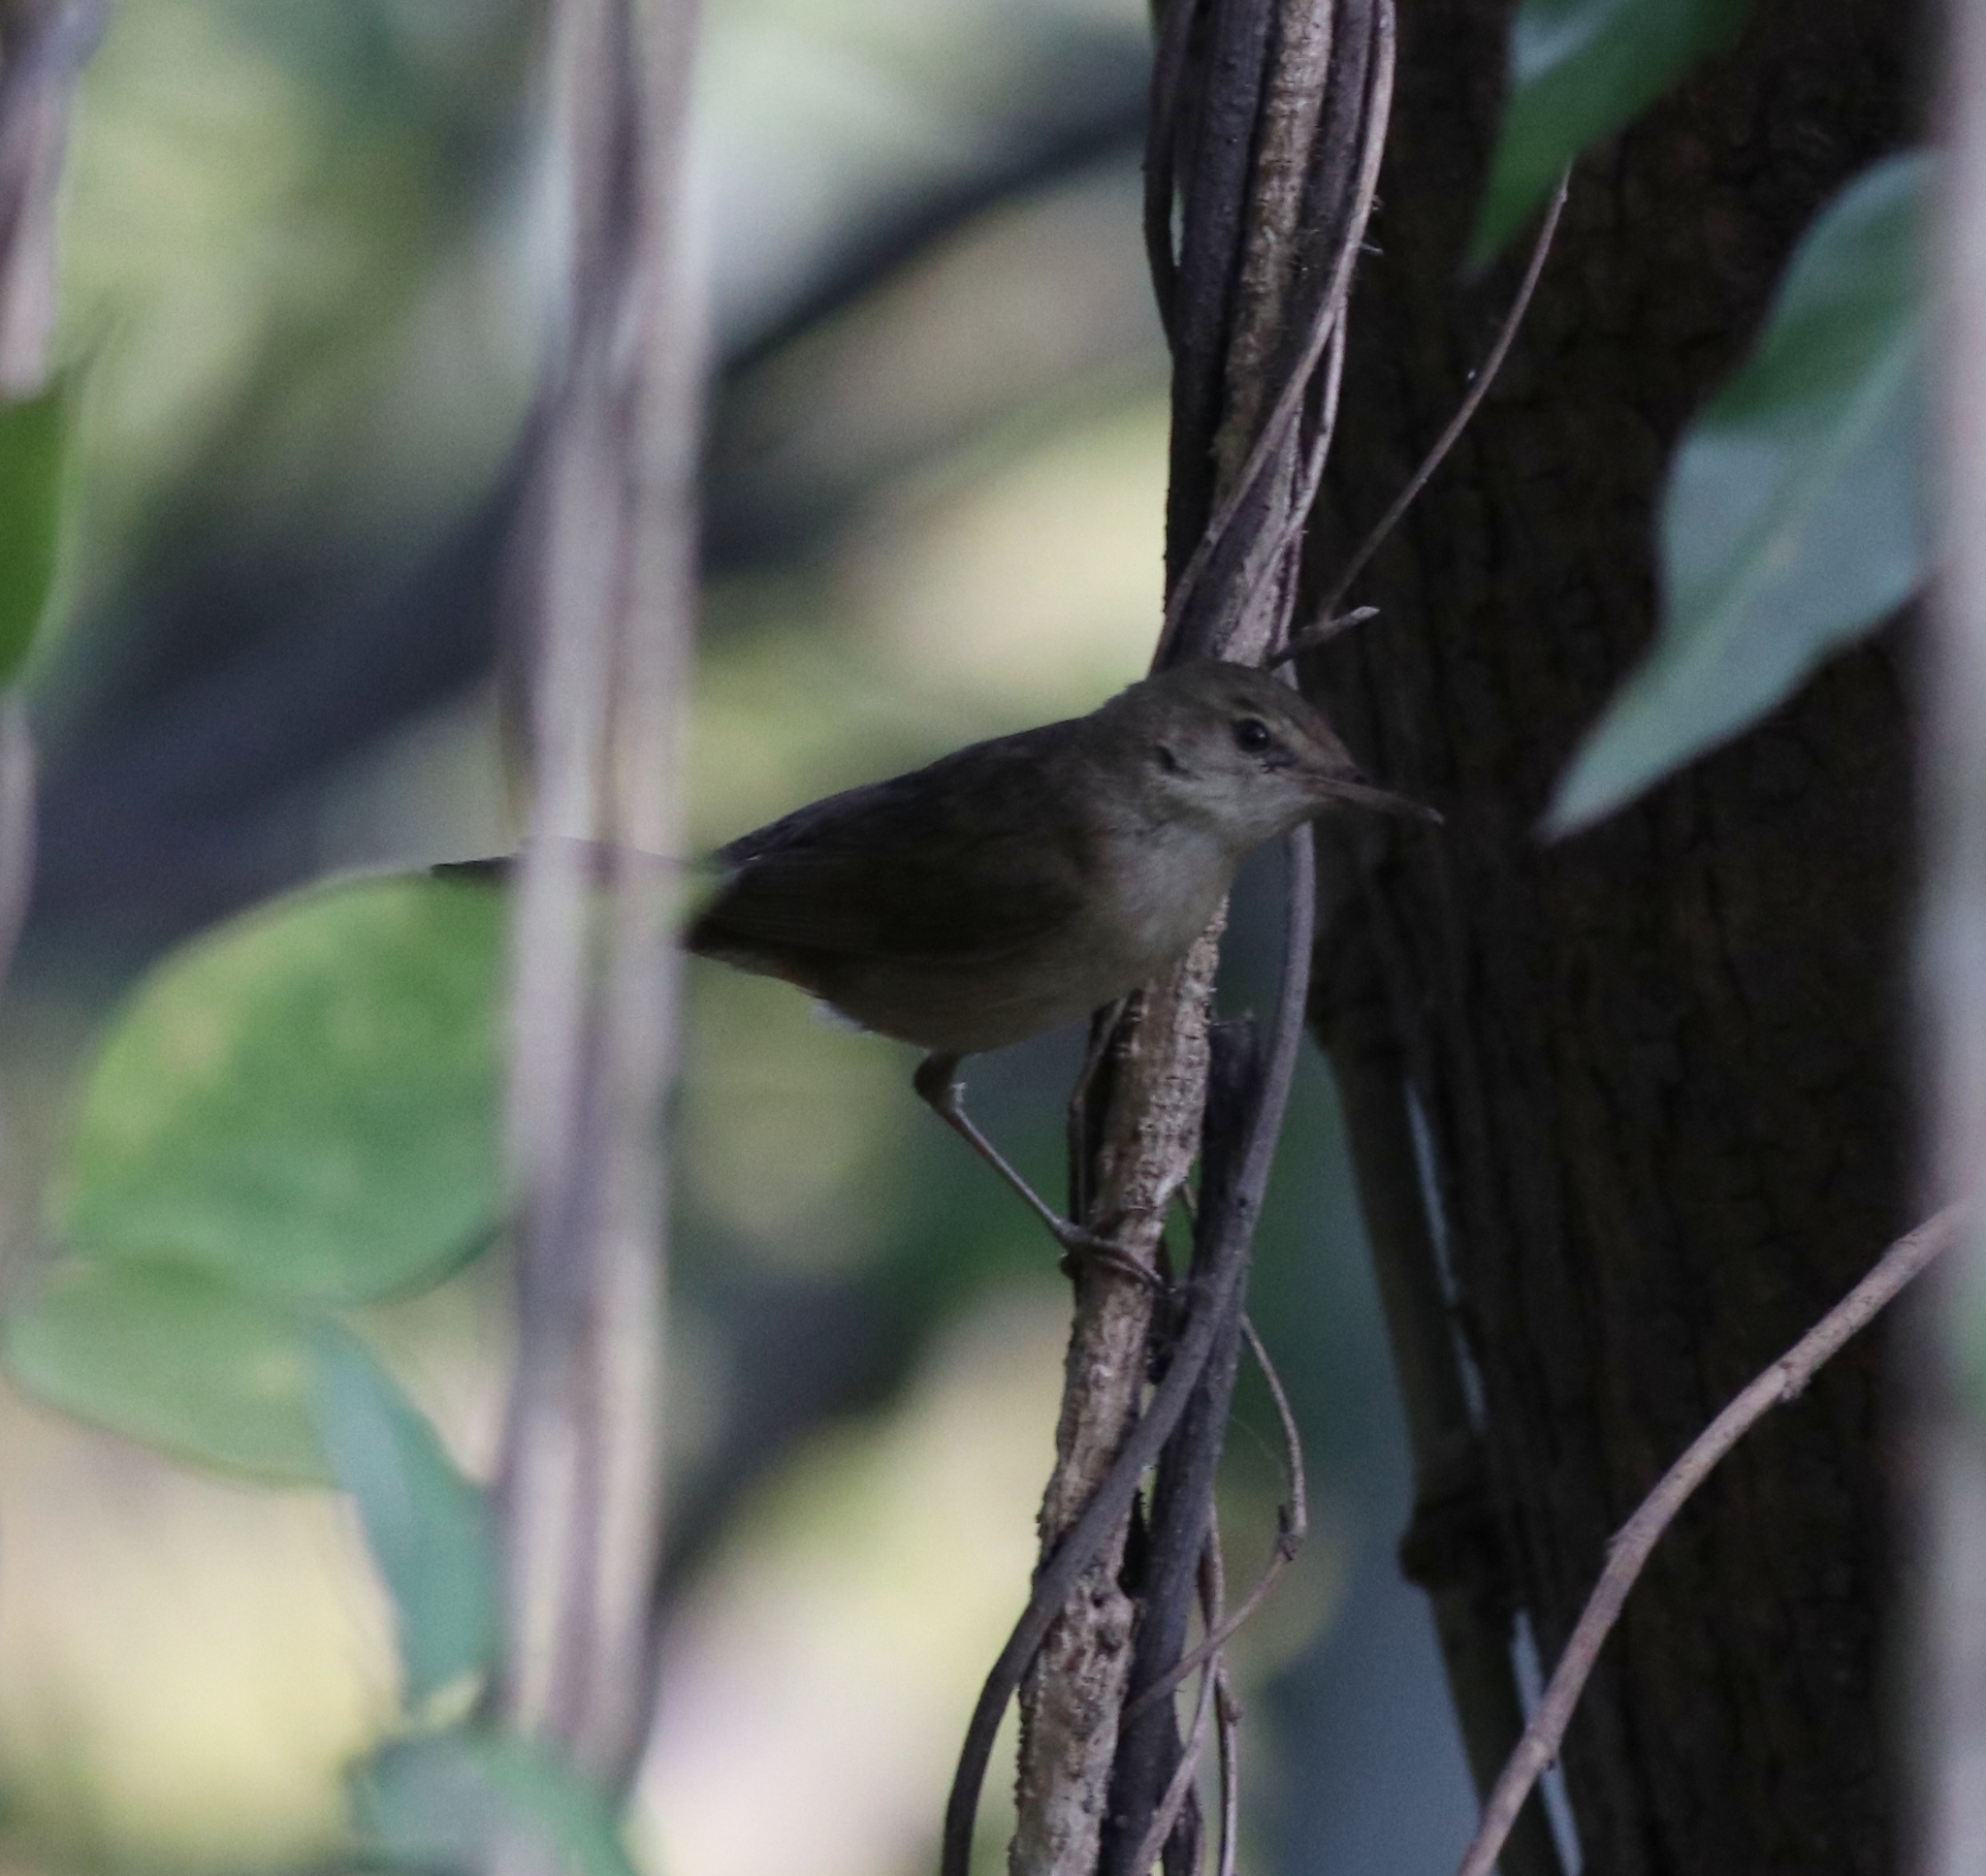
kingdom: Animalia
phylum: Chordata
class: Aves
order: Passeriformes
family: Acrocephalidae
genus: Acrocephalus
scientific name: Acrocephalus dumetorum
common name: Blyth's reed warbler
